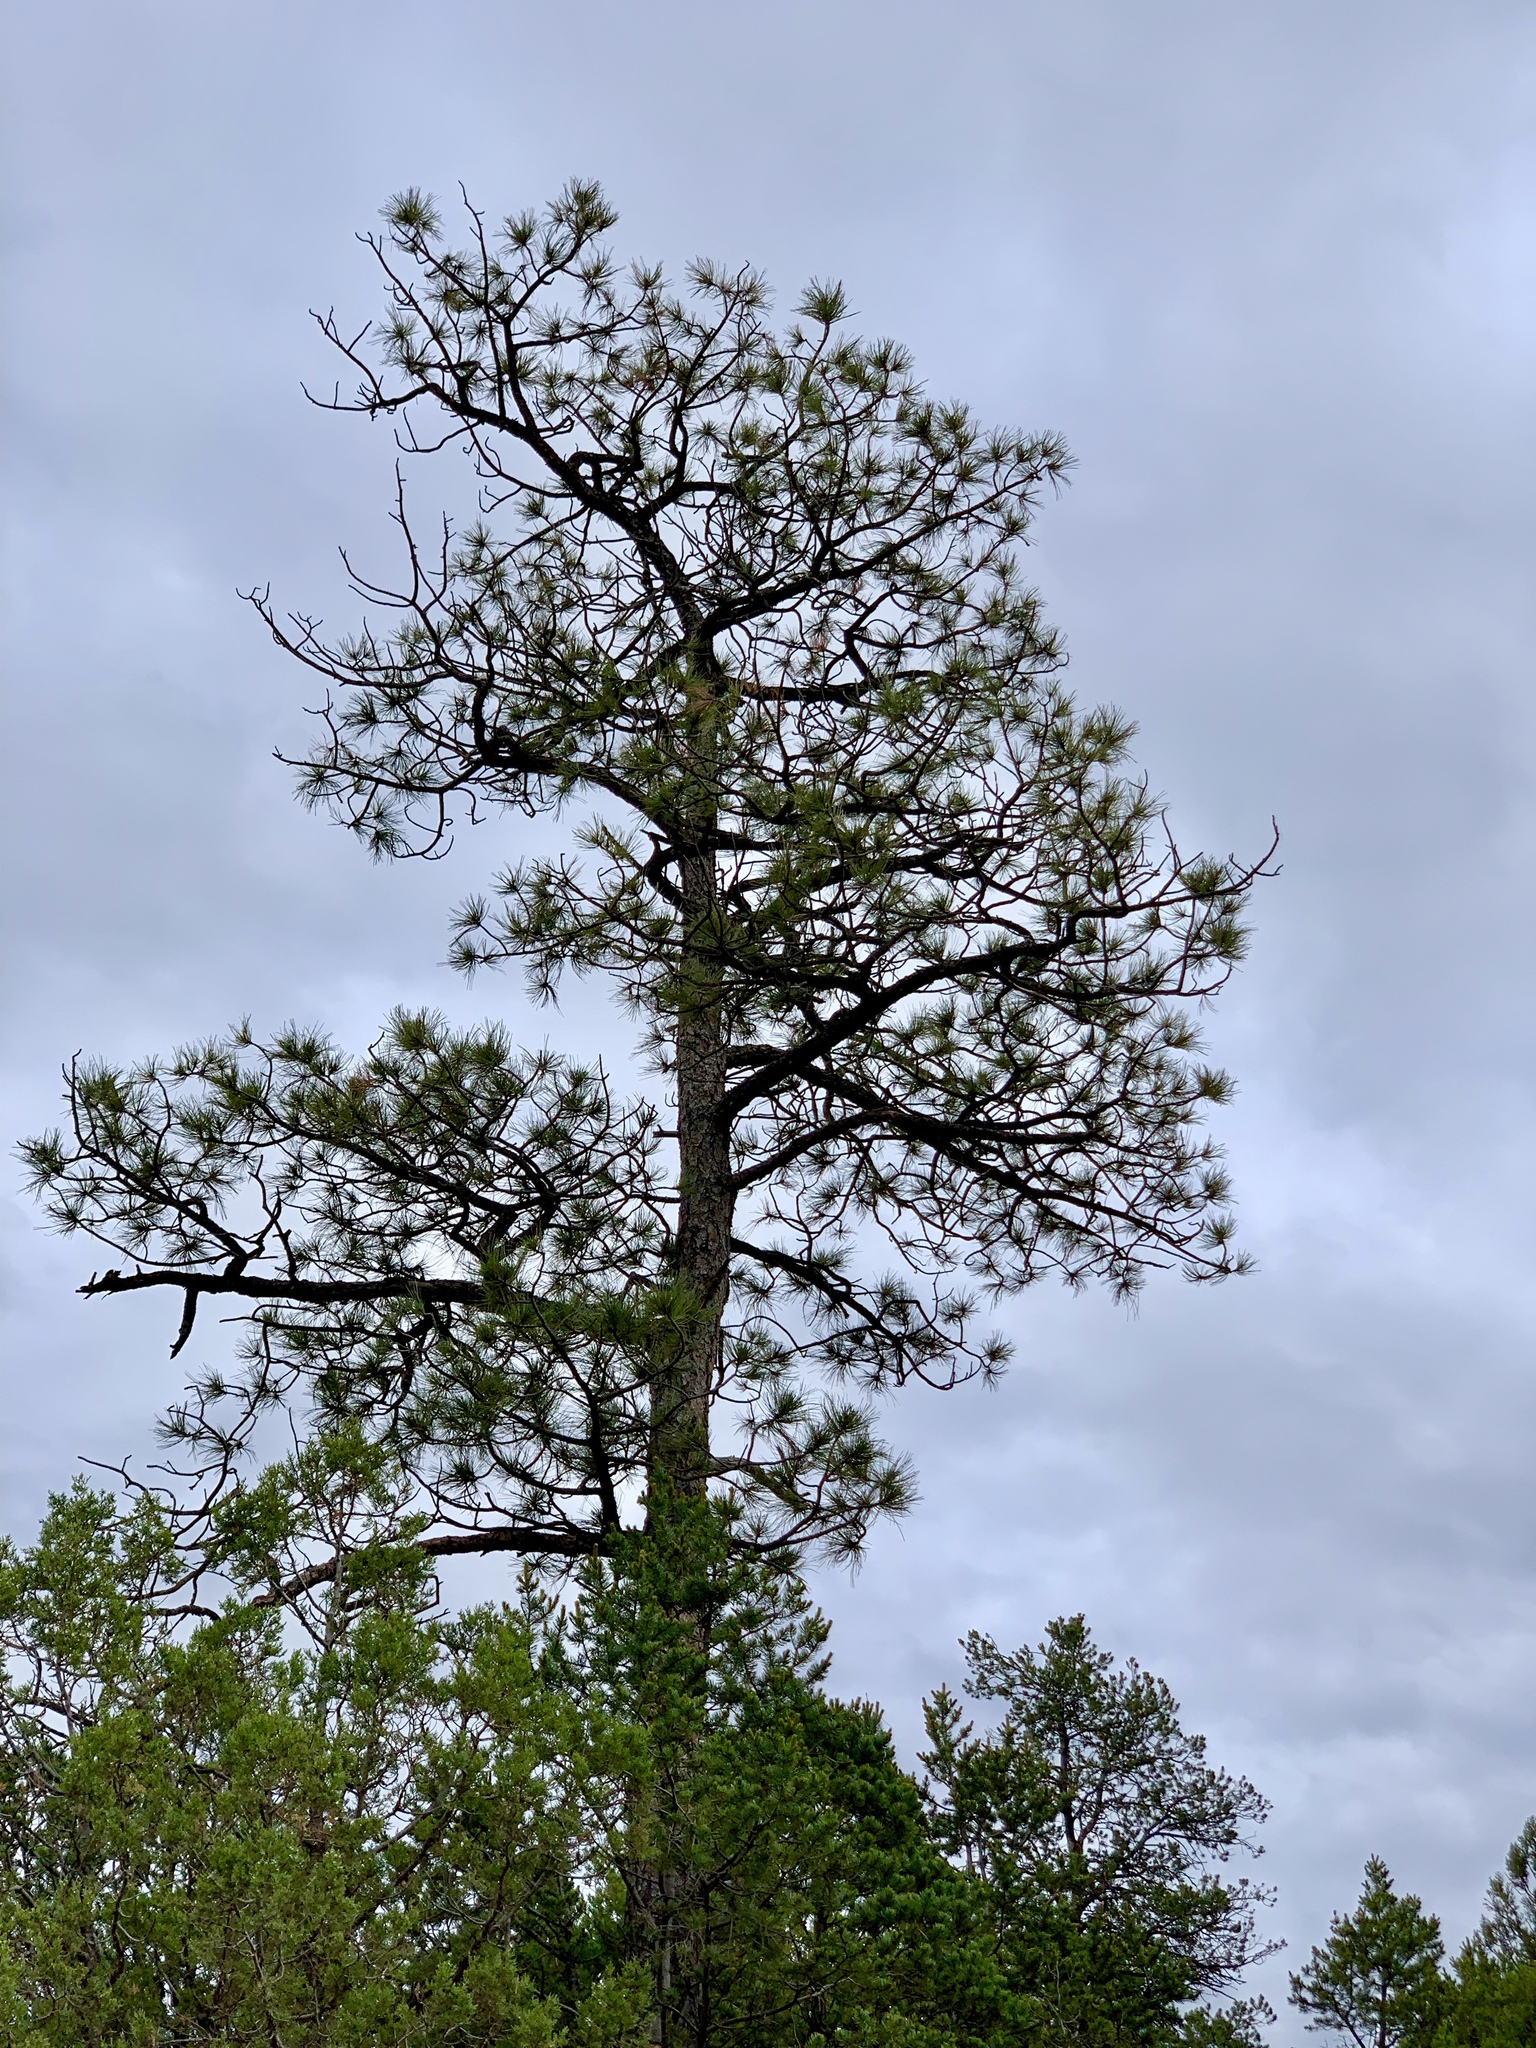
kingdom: Plantae
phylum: Tracheophyta
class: Pinopsida
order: Pinales
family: Pinaceae
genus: Pinus
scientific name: Pinus ponderosa
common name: Western yellow-pine
